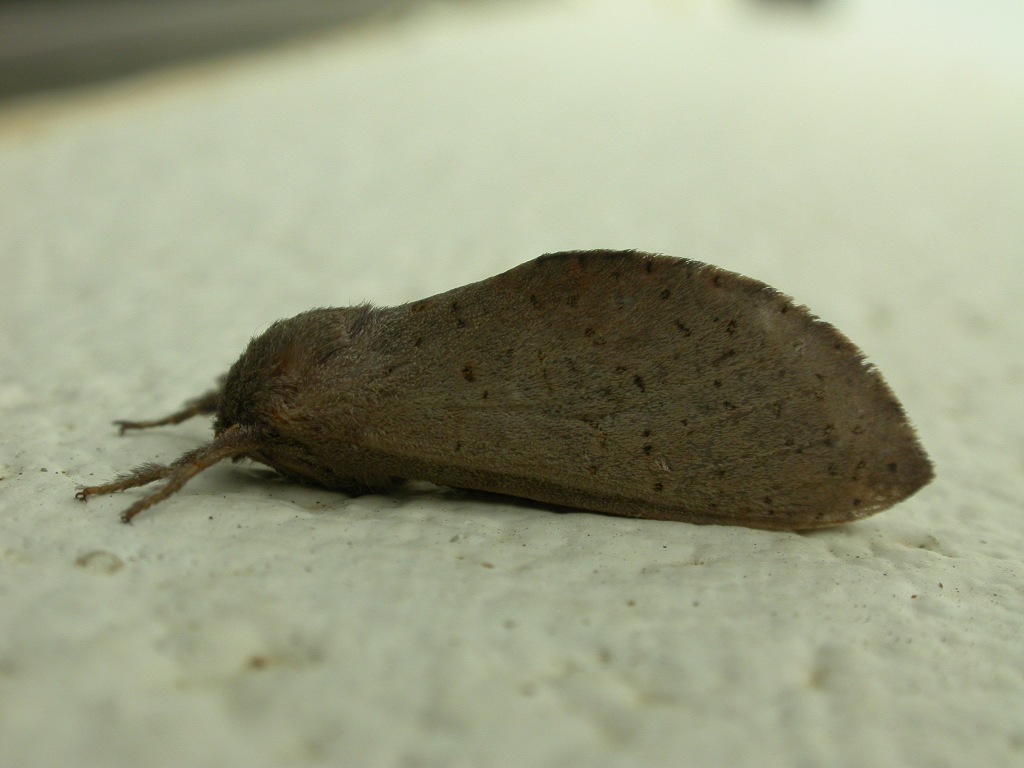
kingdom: Animalia
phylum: Arthropoda
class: Insecta
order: Lepidoptera
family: Hepialidae
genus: Elhamma
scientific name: Elhamma australasiae
